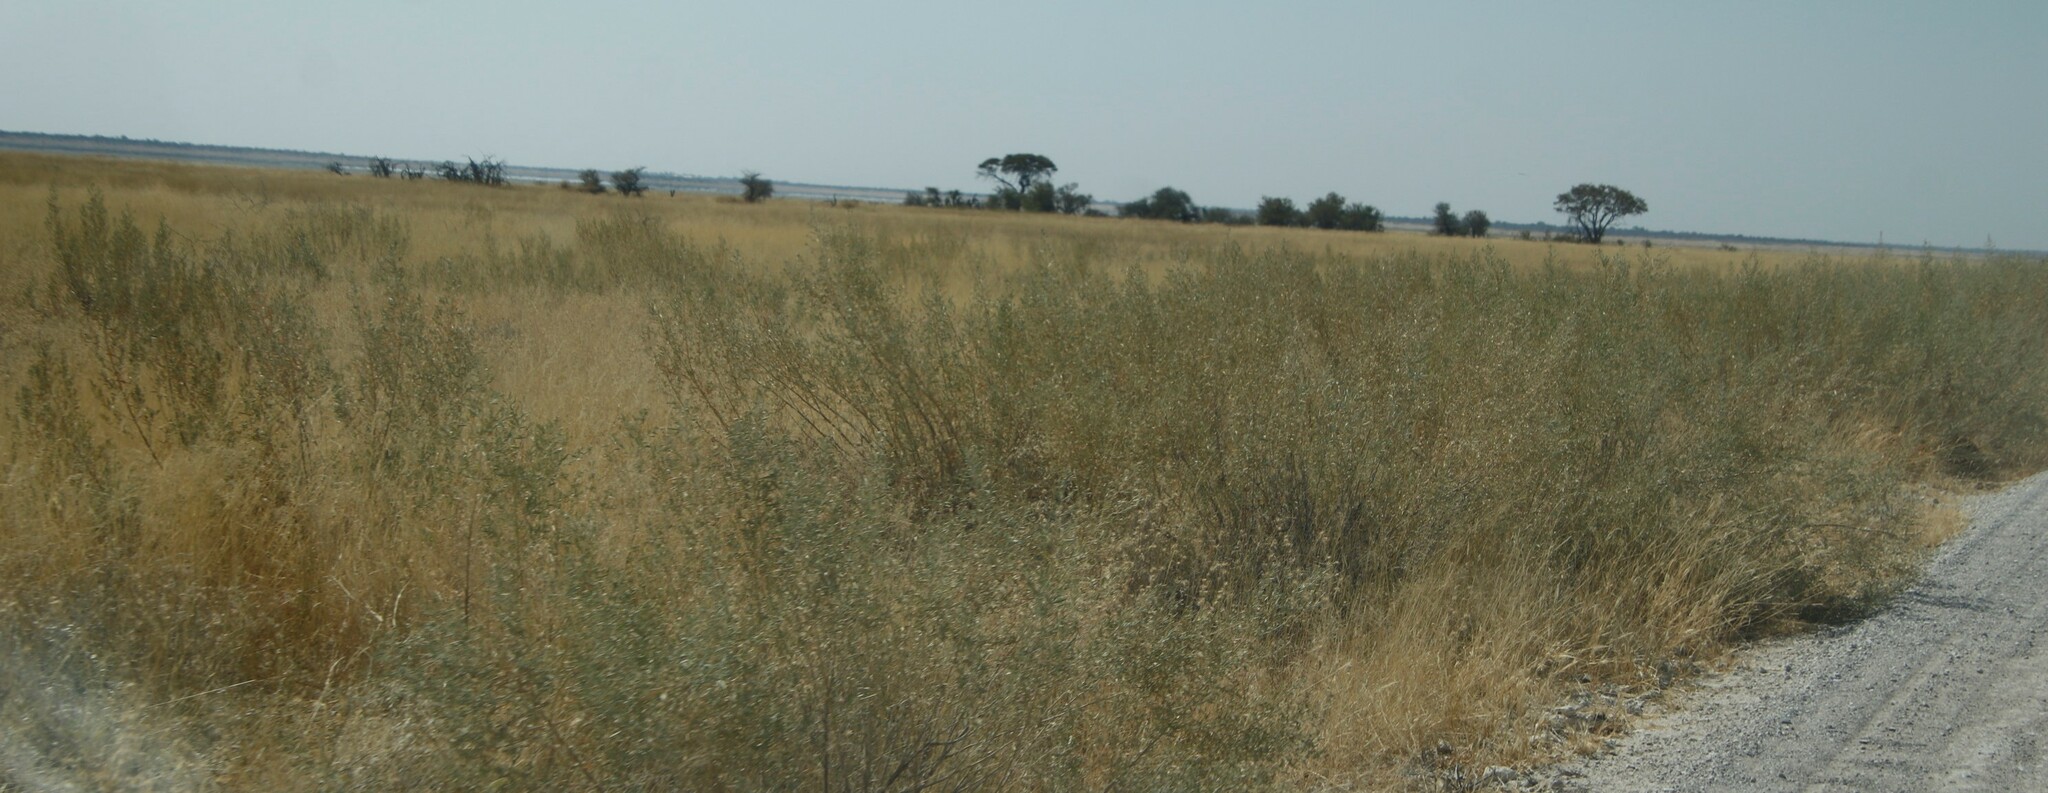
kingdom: Plantae
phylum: Tracheophyta
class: Magnoliopsida
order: Asterales
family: Asteraceae
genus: Pechuel-loeschea
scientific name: Pechuel-loeschea leubnitziae
